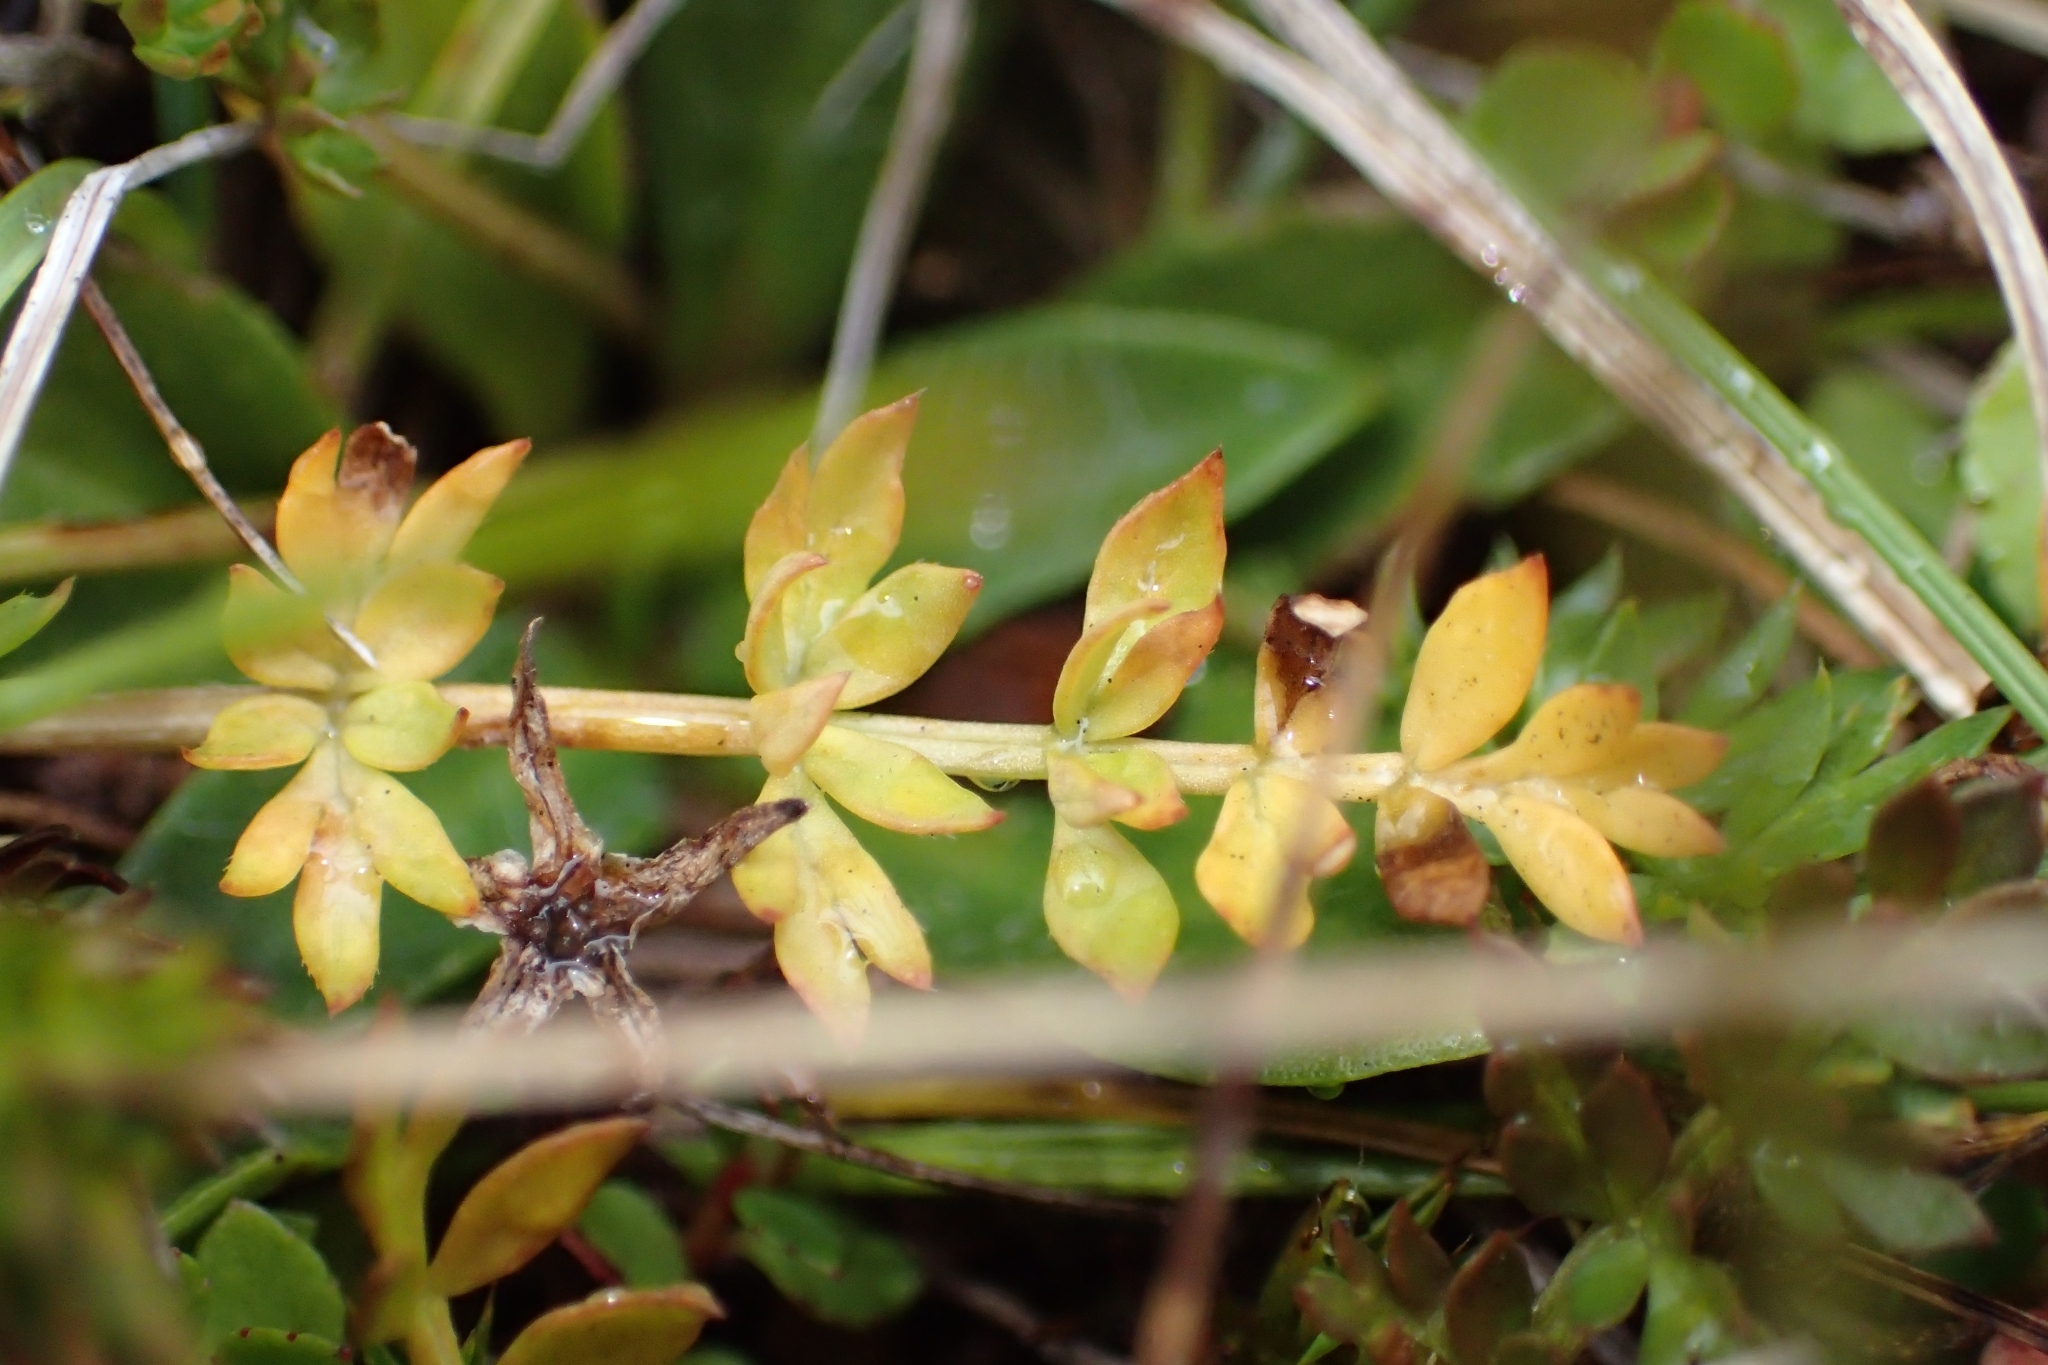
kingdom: Plantae
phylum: Tracheophyta
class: Magnoliopsida
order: Apiales
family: Apiaceae
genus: Chaerophyllum
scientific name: Chaerophyllum colensoi
